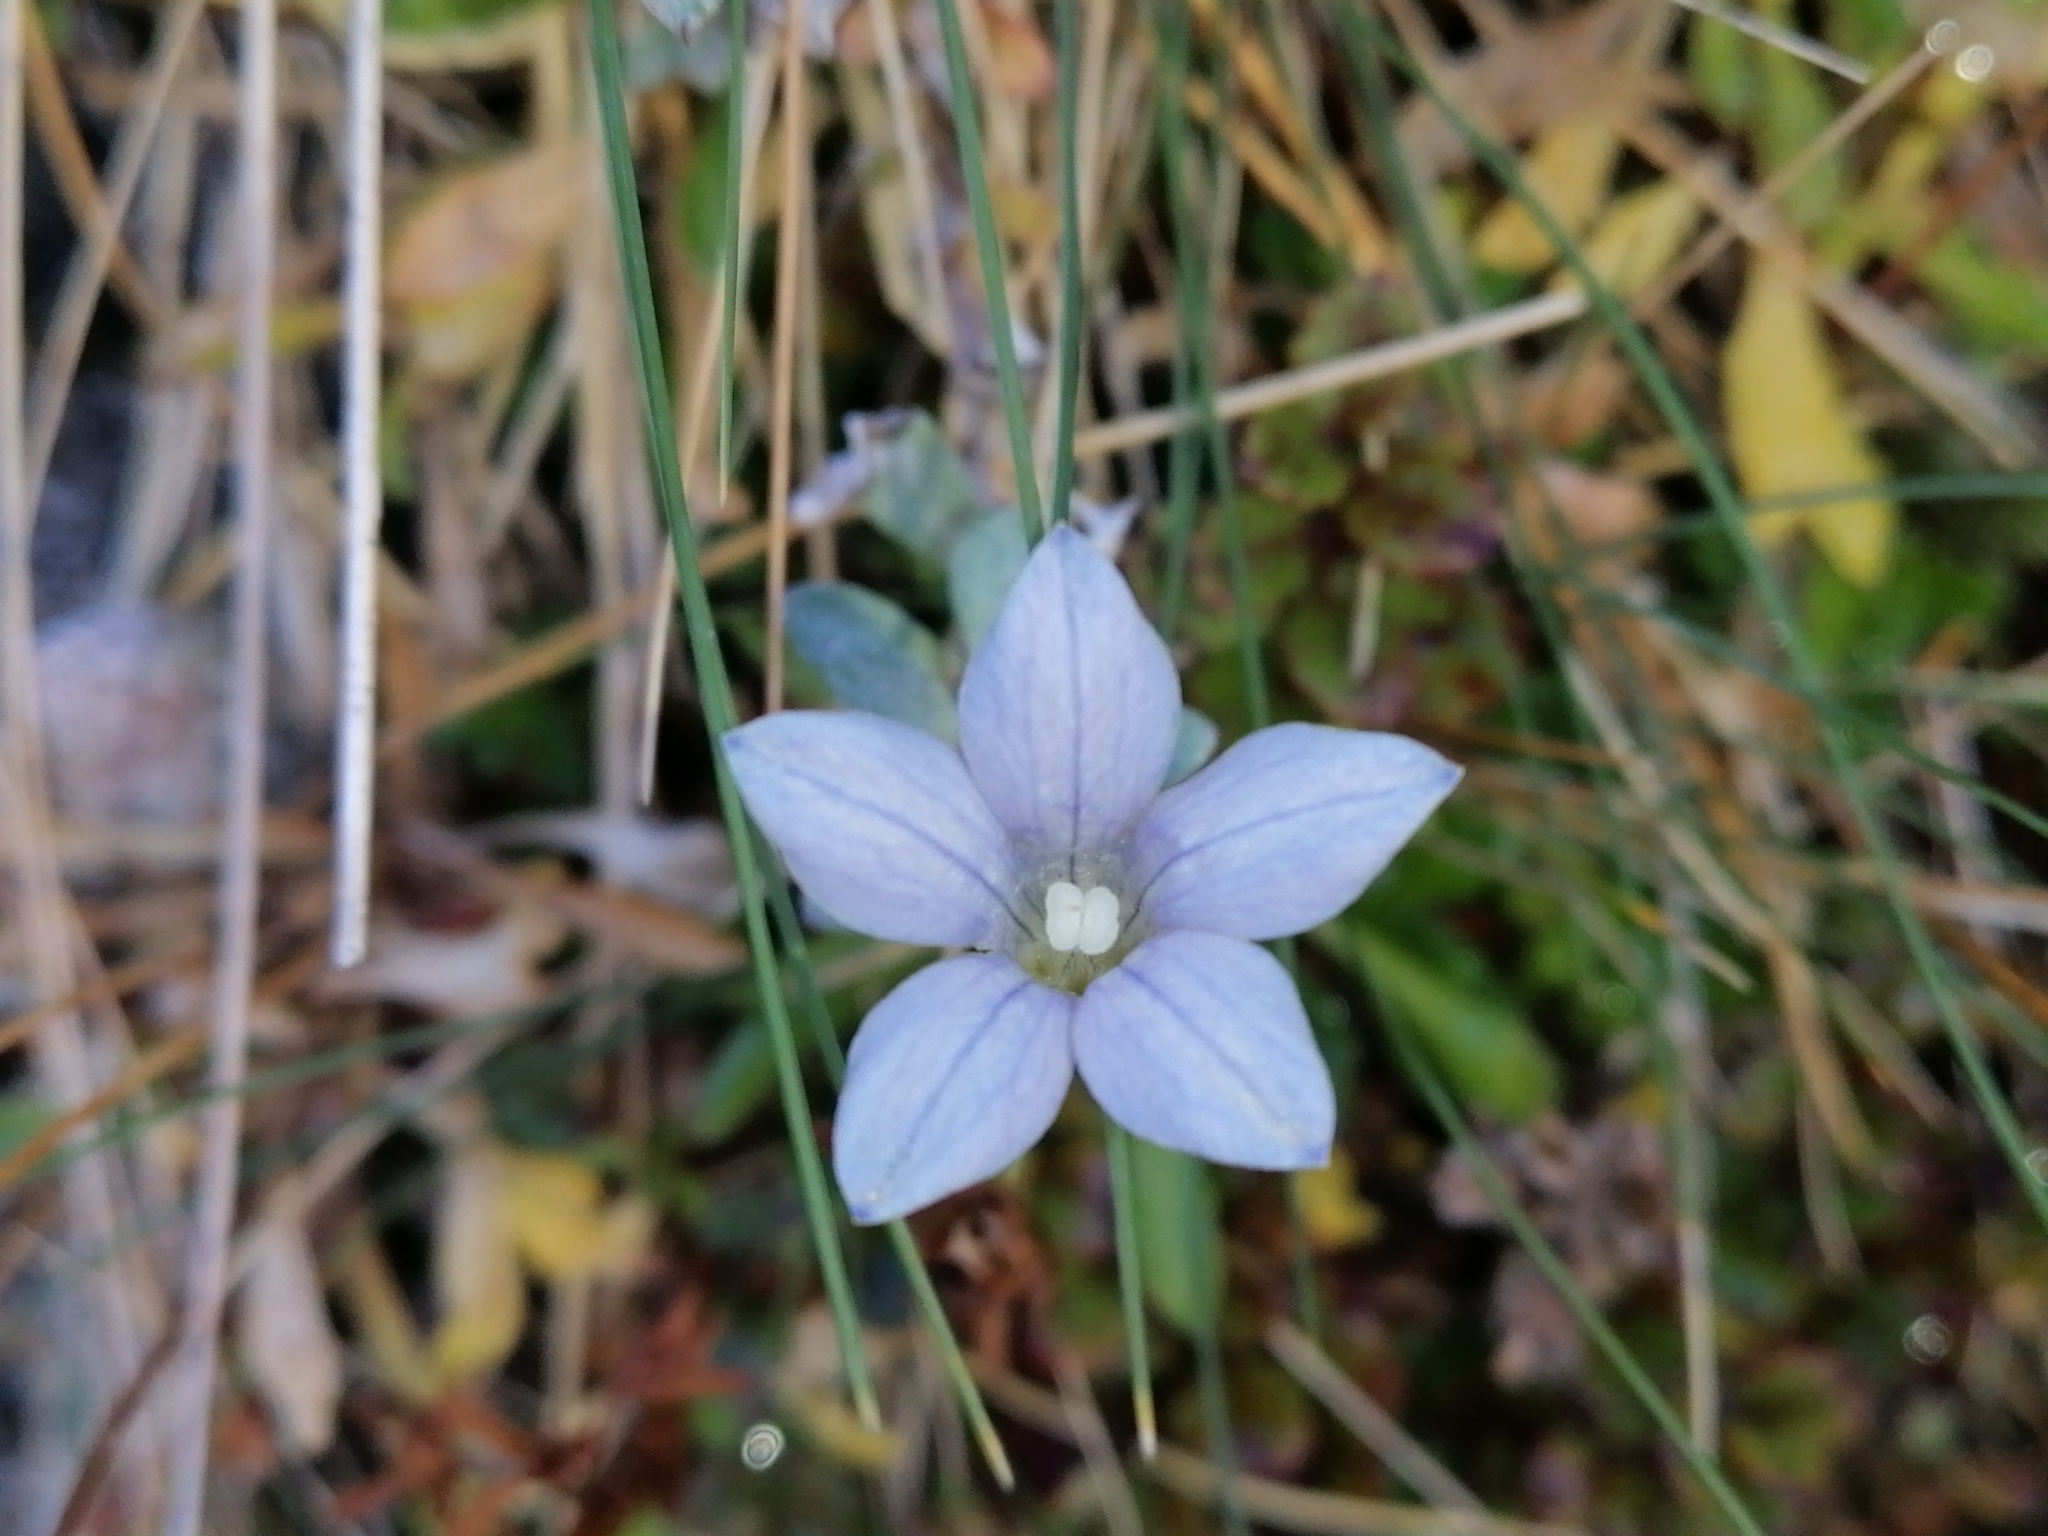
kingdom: Plantae
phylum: Tracheophyta
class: Magnoliopsida
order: Asterales
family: Campanulaceae
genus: Wahlenbergia
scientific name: Wahlenbergia albomarginata
